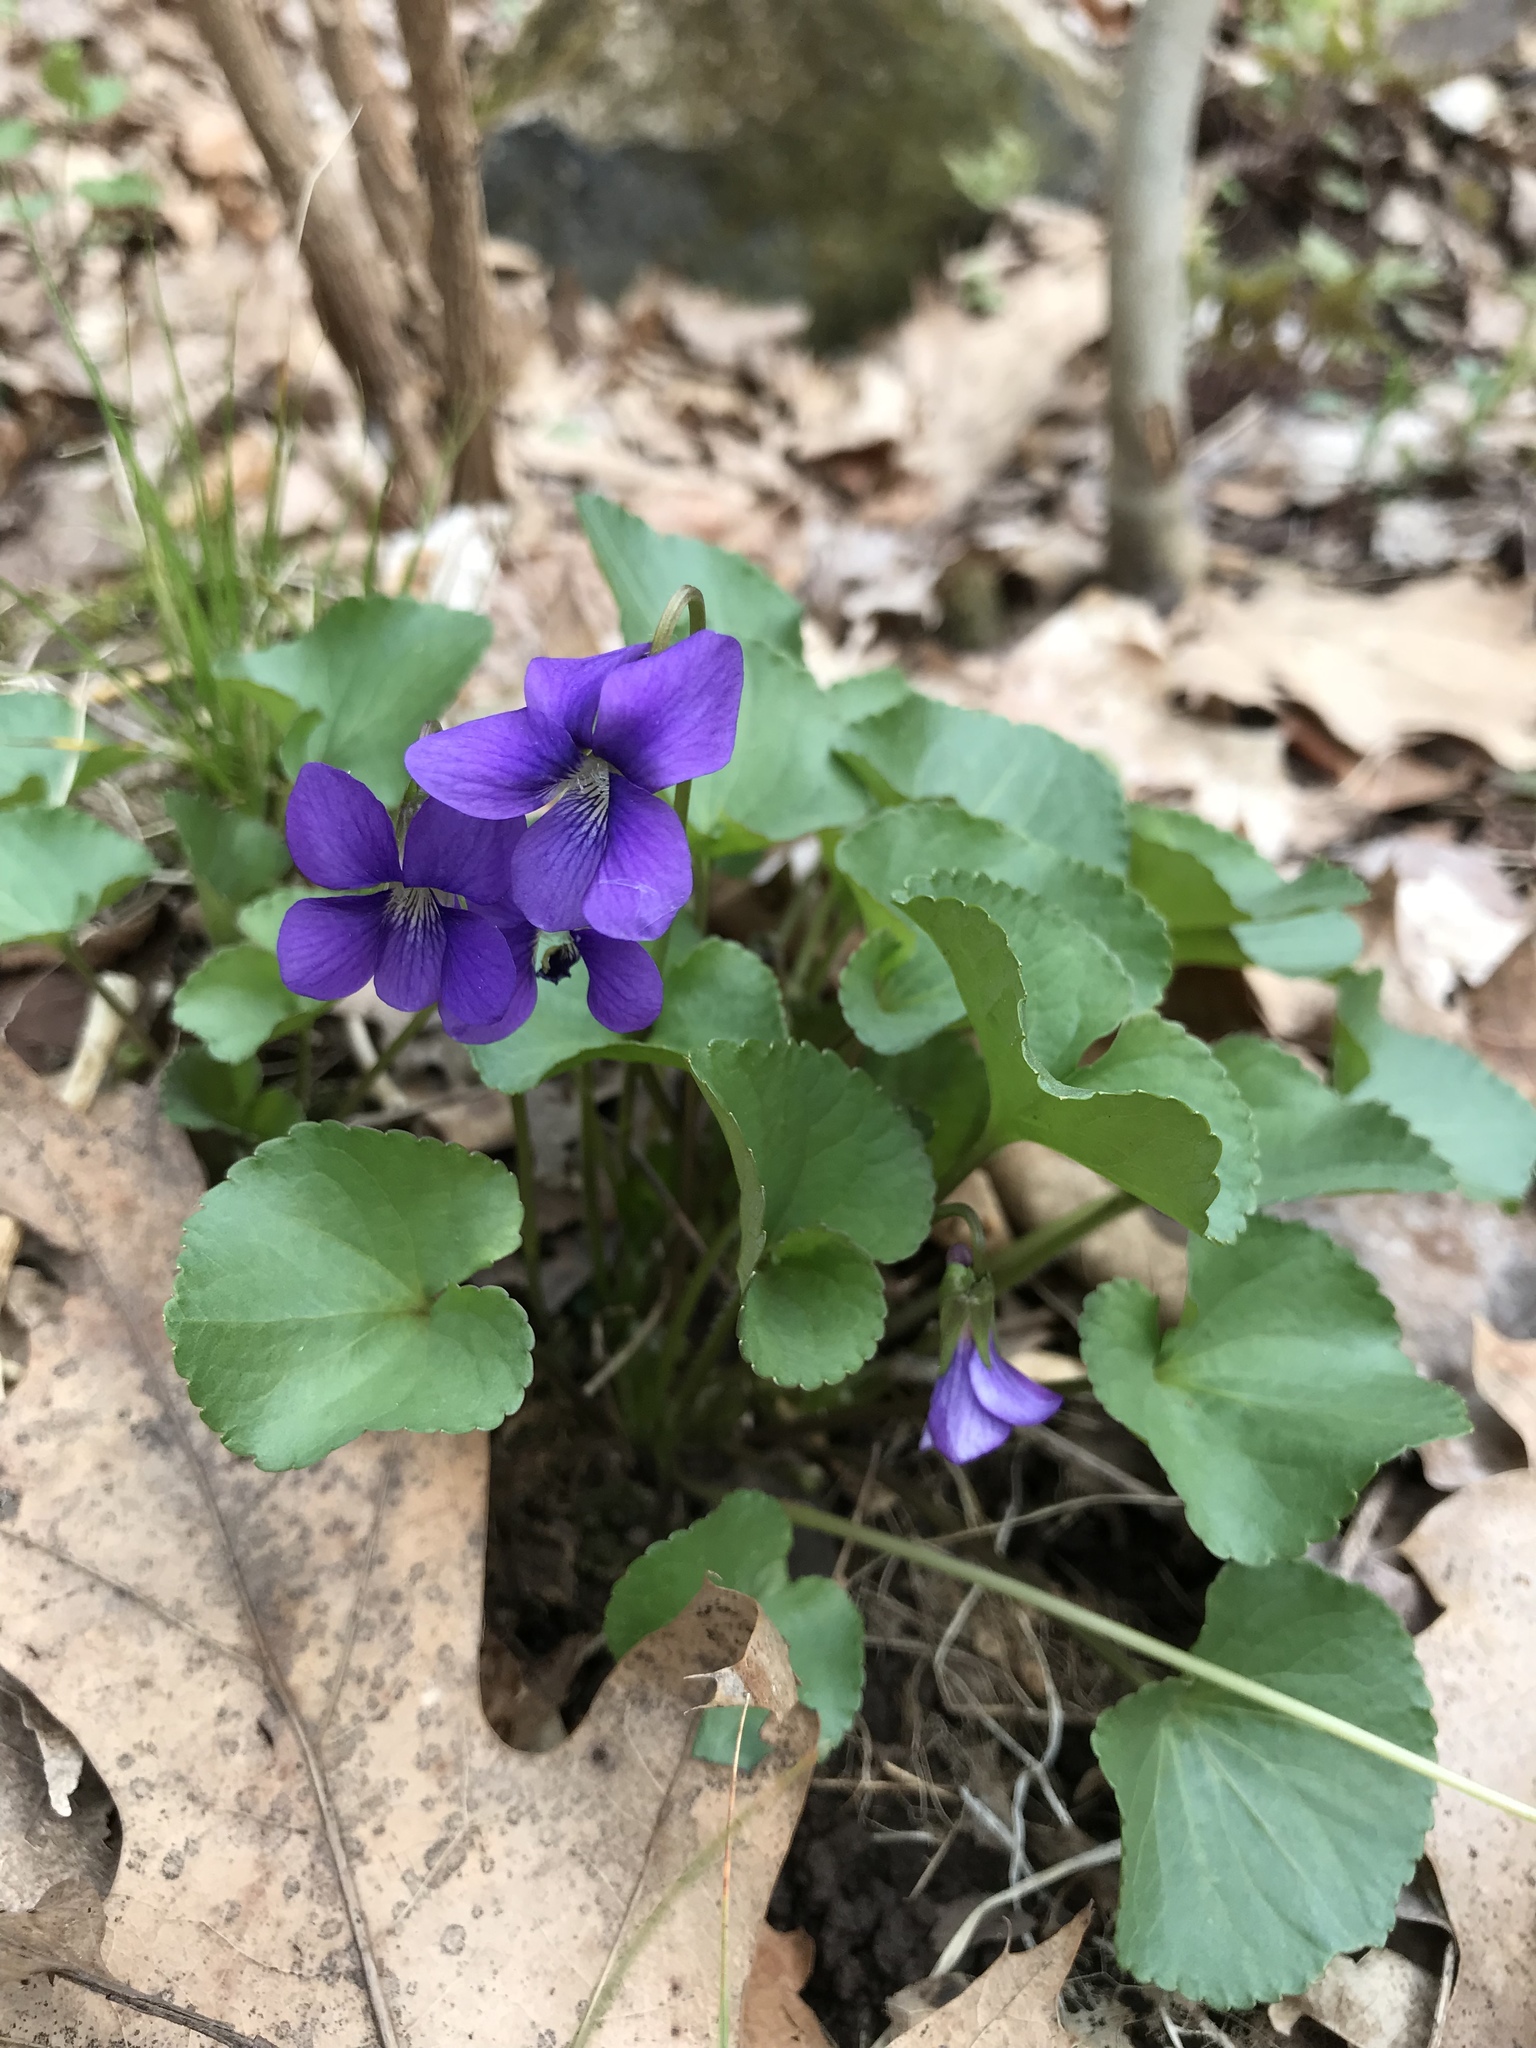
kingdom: Plantae
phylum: Tracheophyta
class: Magnoliopsida
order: Malpighiales
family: Violaceae
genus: Viola
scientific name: Viola sororia
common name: Dooryard violet
